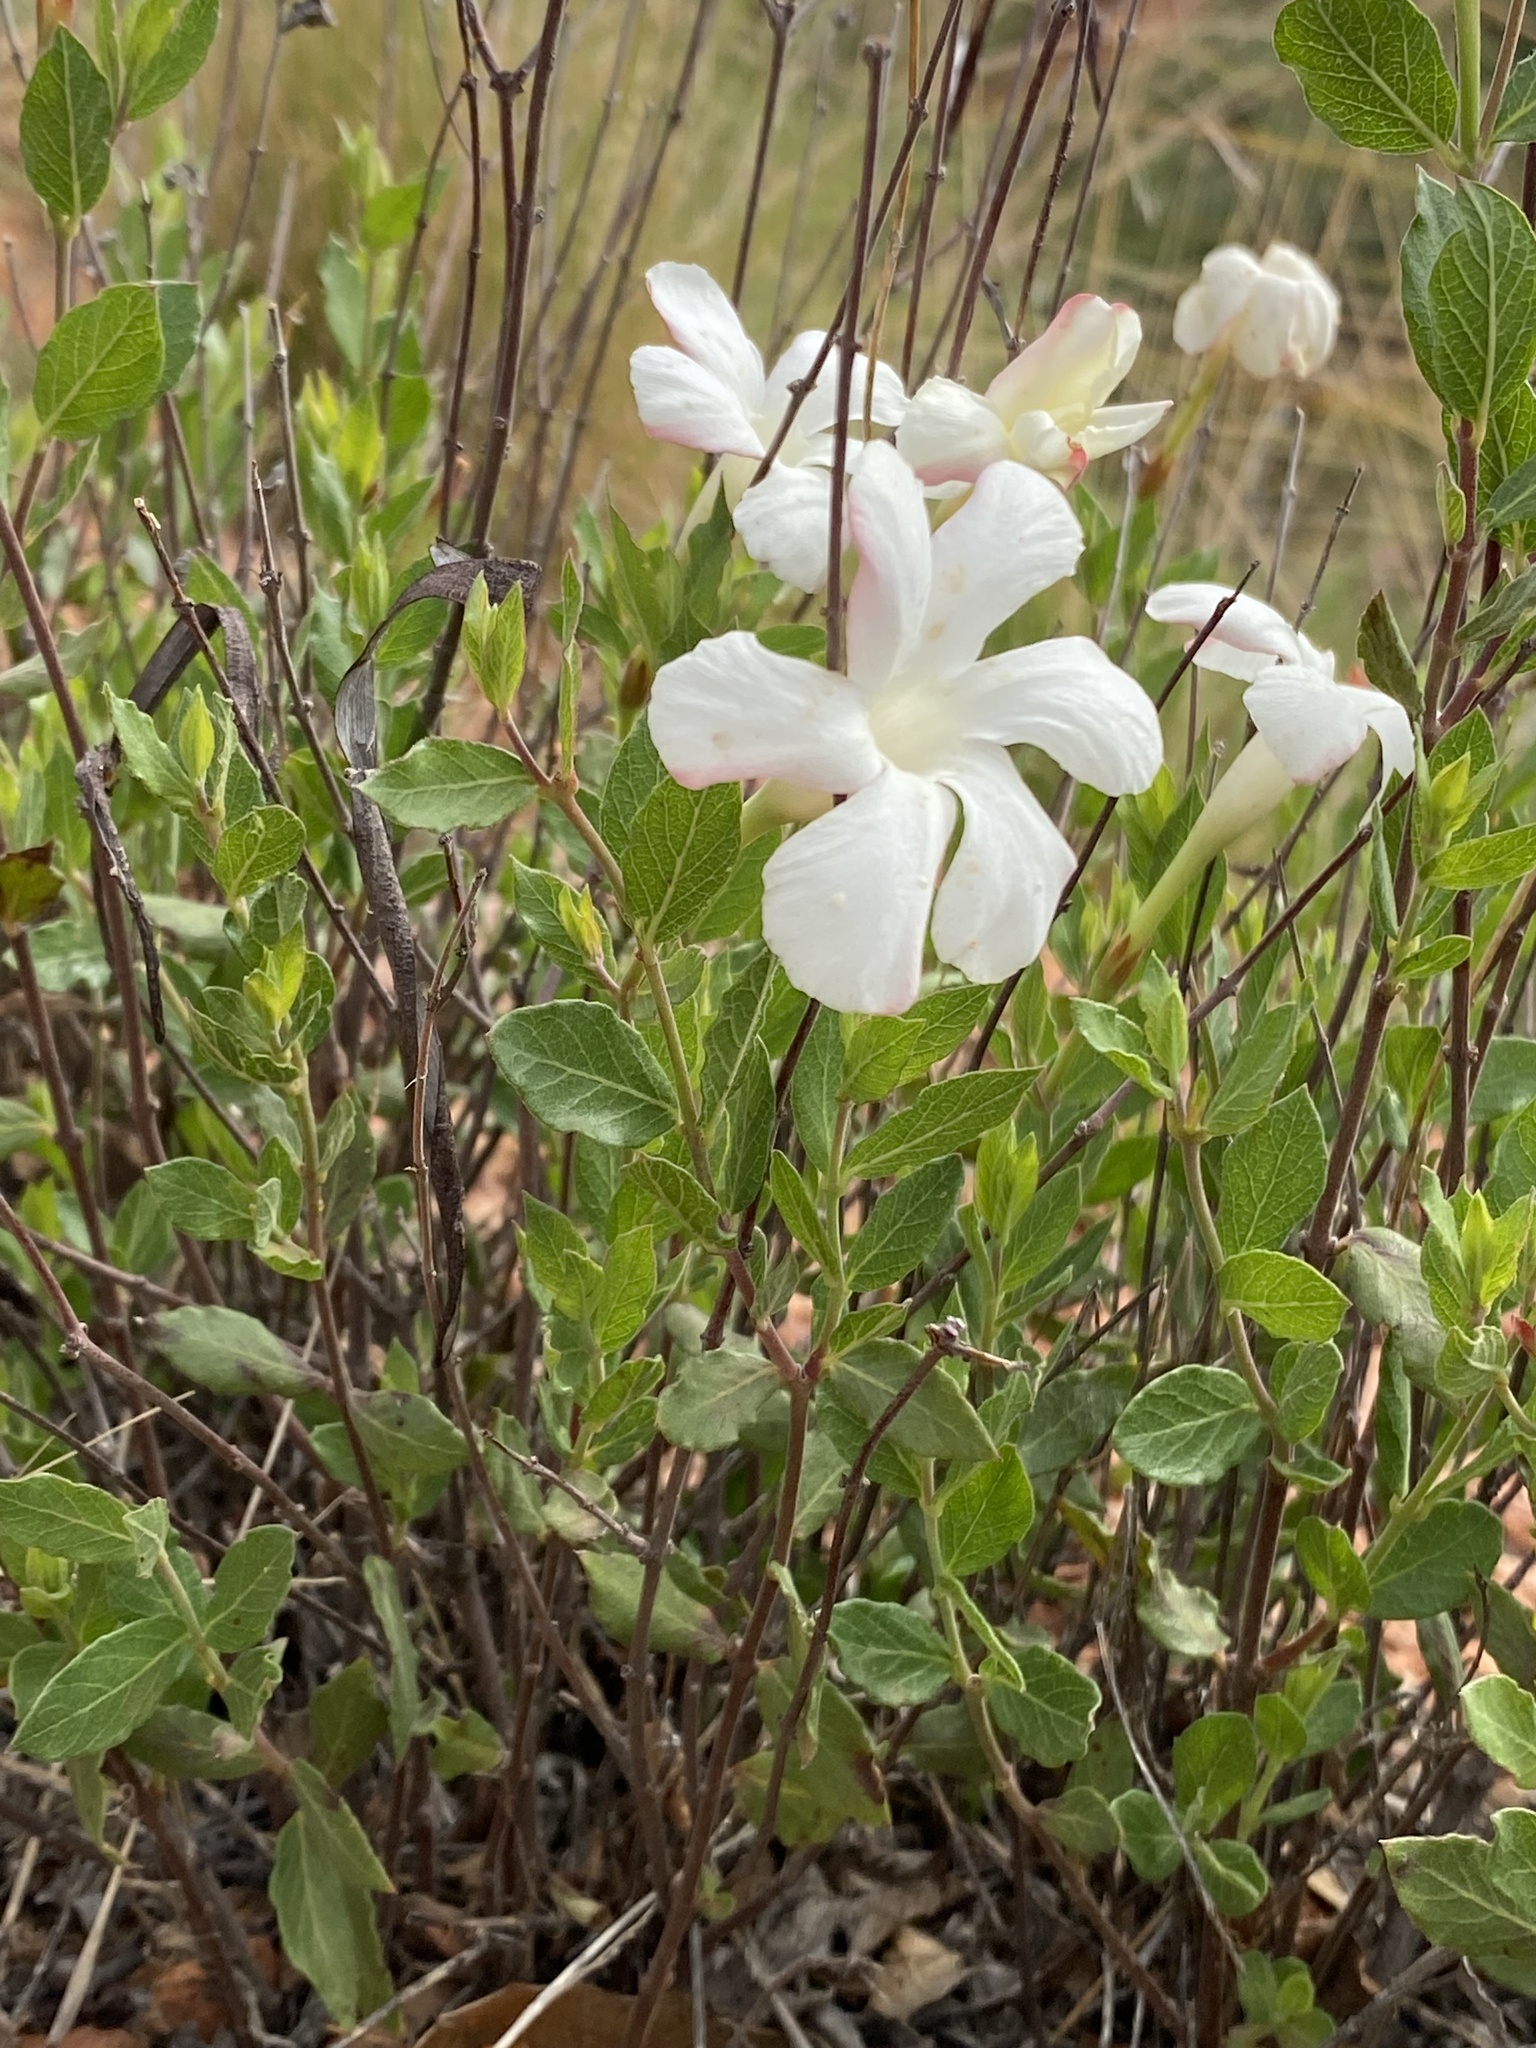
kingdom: Plantae
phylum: Tracheophyta
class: Magnoliopsida
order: Gentianales
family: Apocynaceae
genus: Mandevilla
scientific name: Mandevilla brachysiphon
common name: Huachuca mountain rocktrumpet
